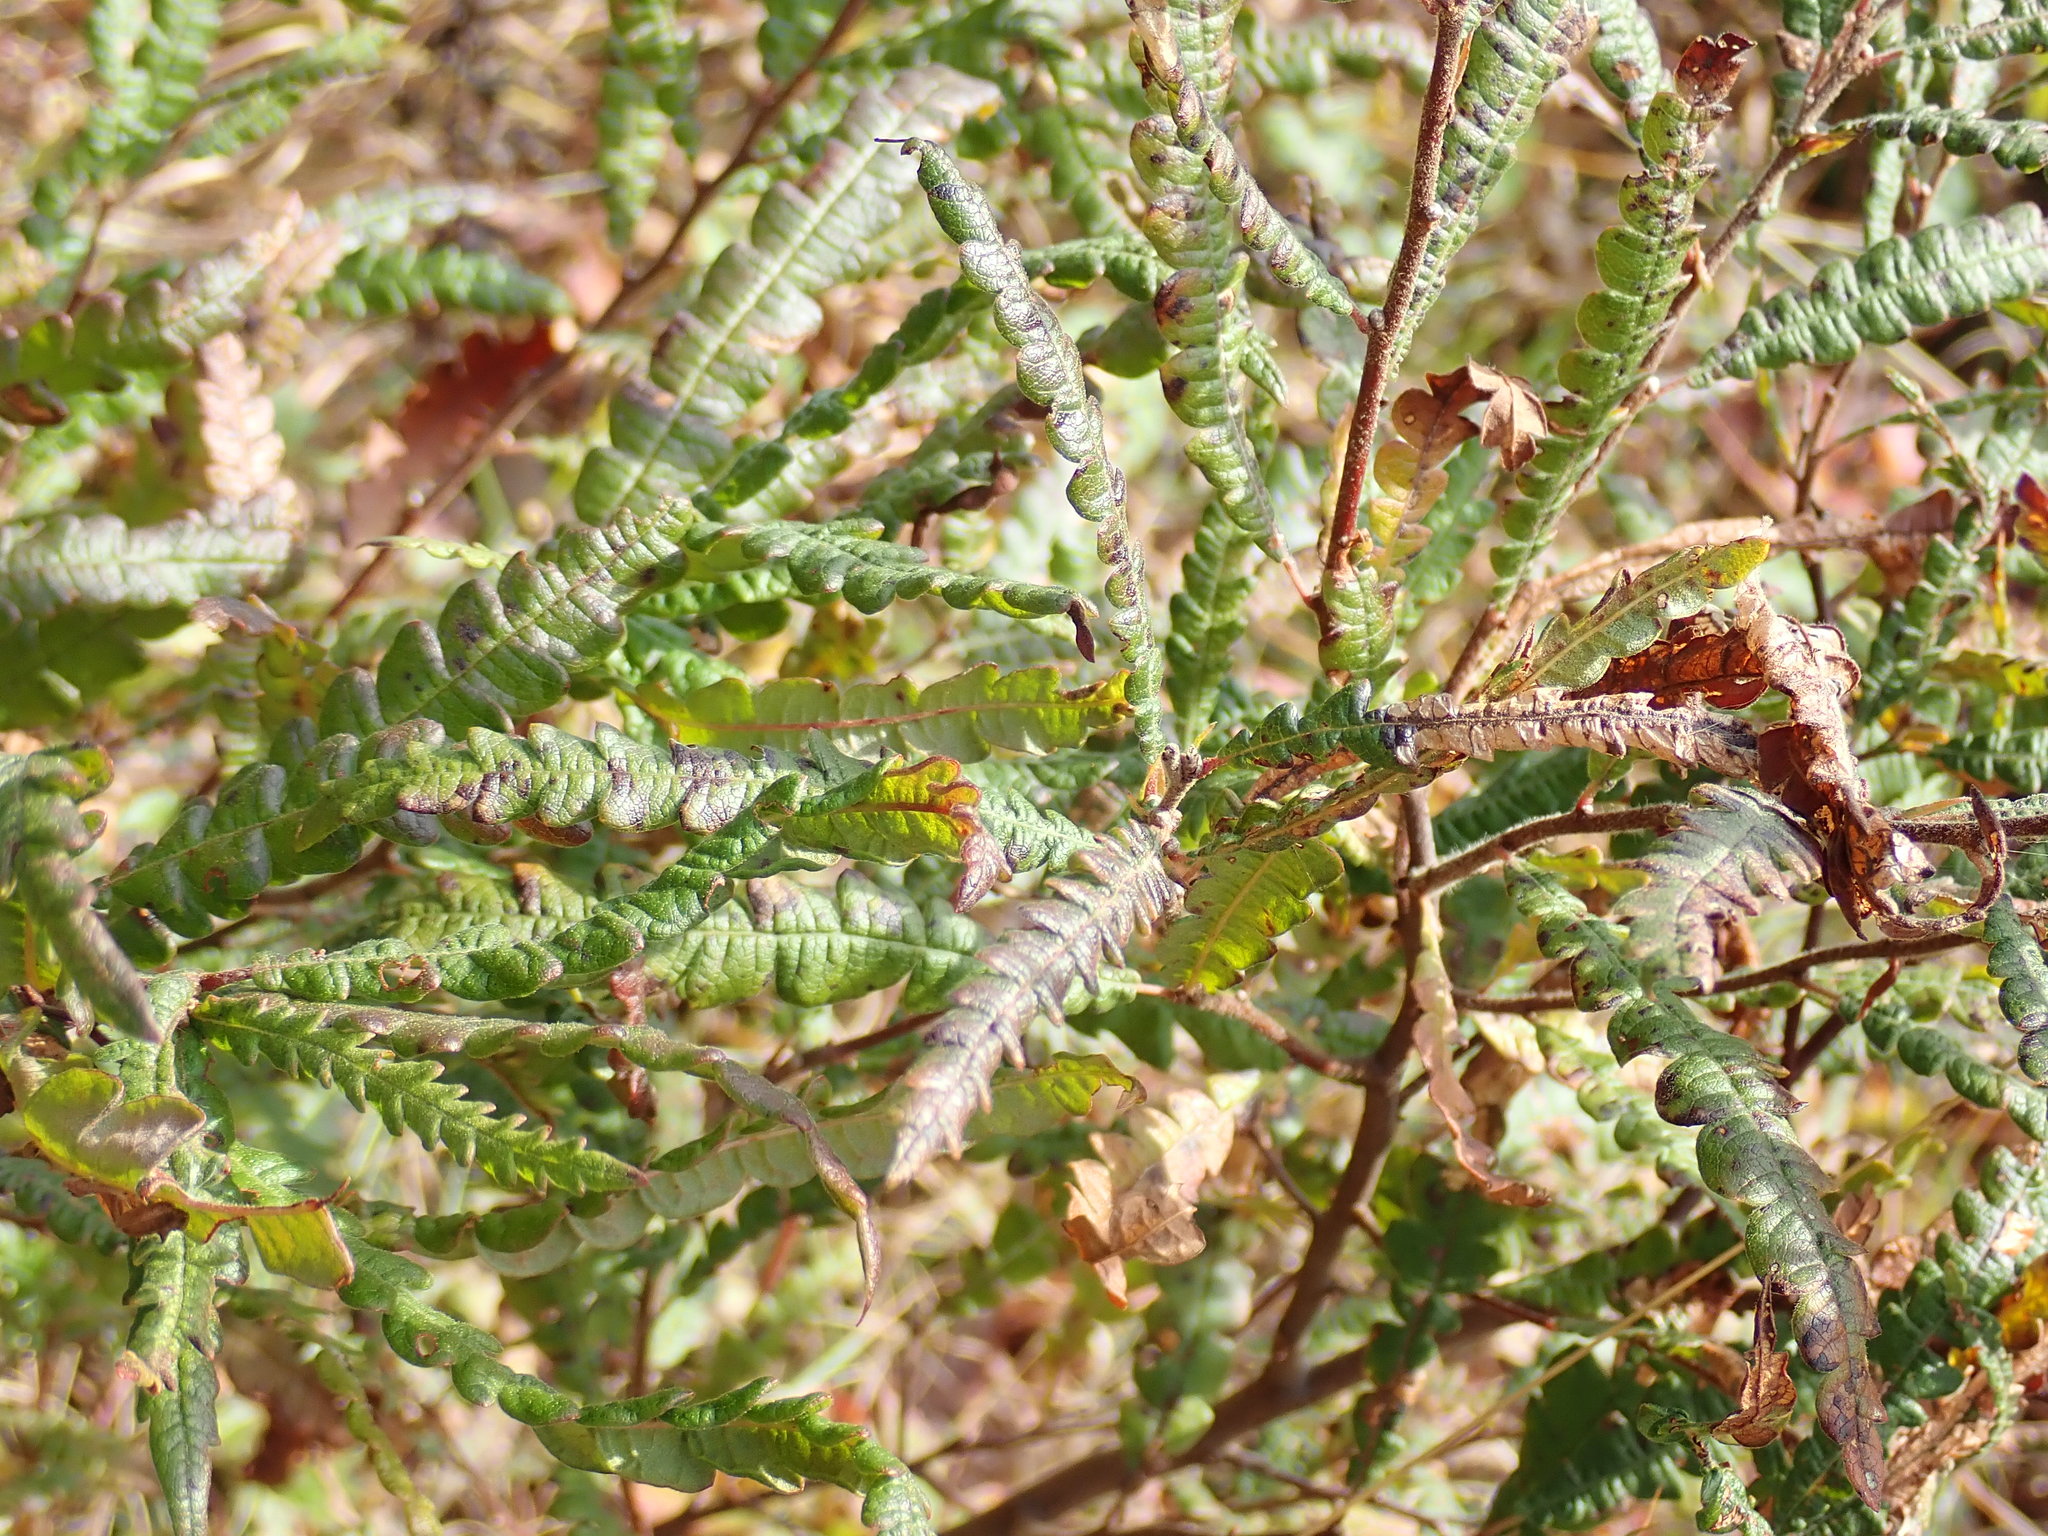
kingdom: Plantae
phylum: Tracheophyta
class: Magnoliopsida
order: Fagales
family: Myricaceae
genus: Comptonia
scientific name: Comptonia peregrina
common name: Sweet-fern
